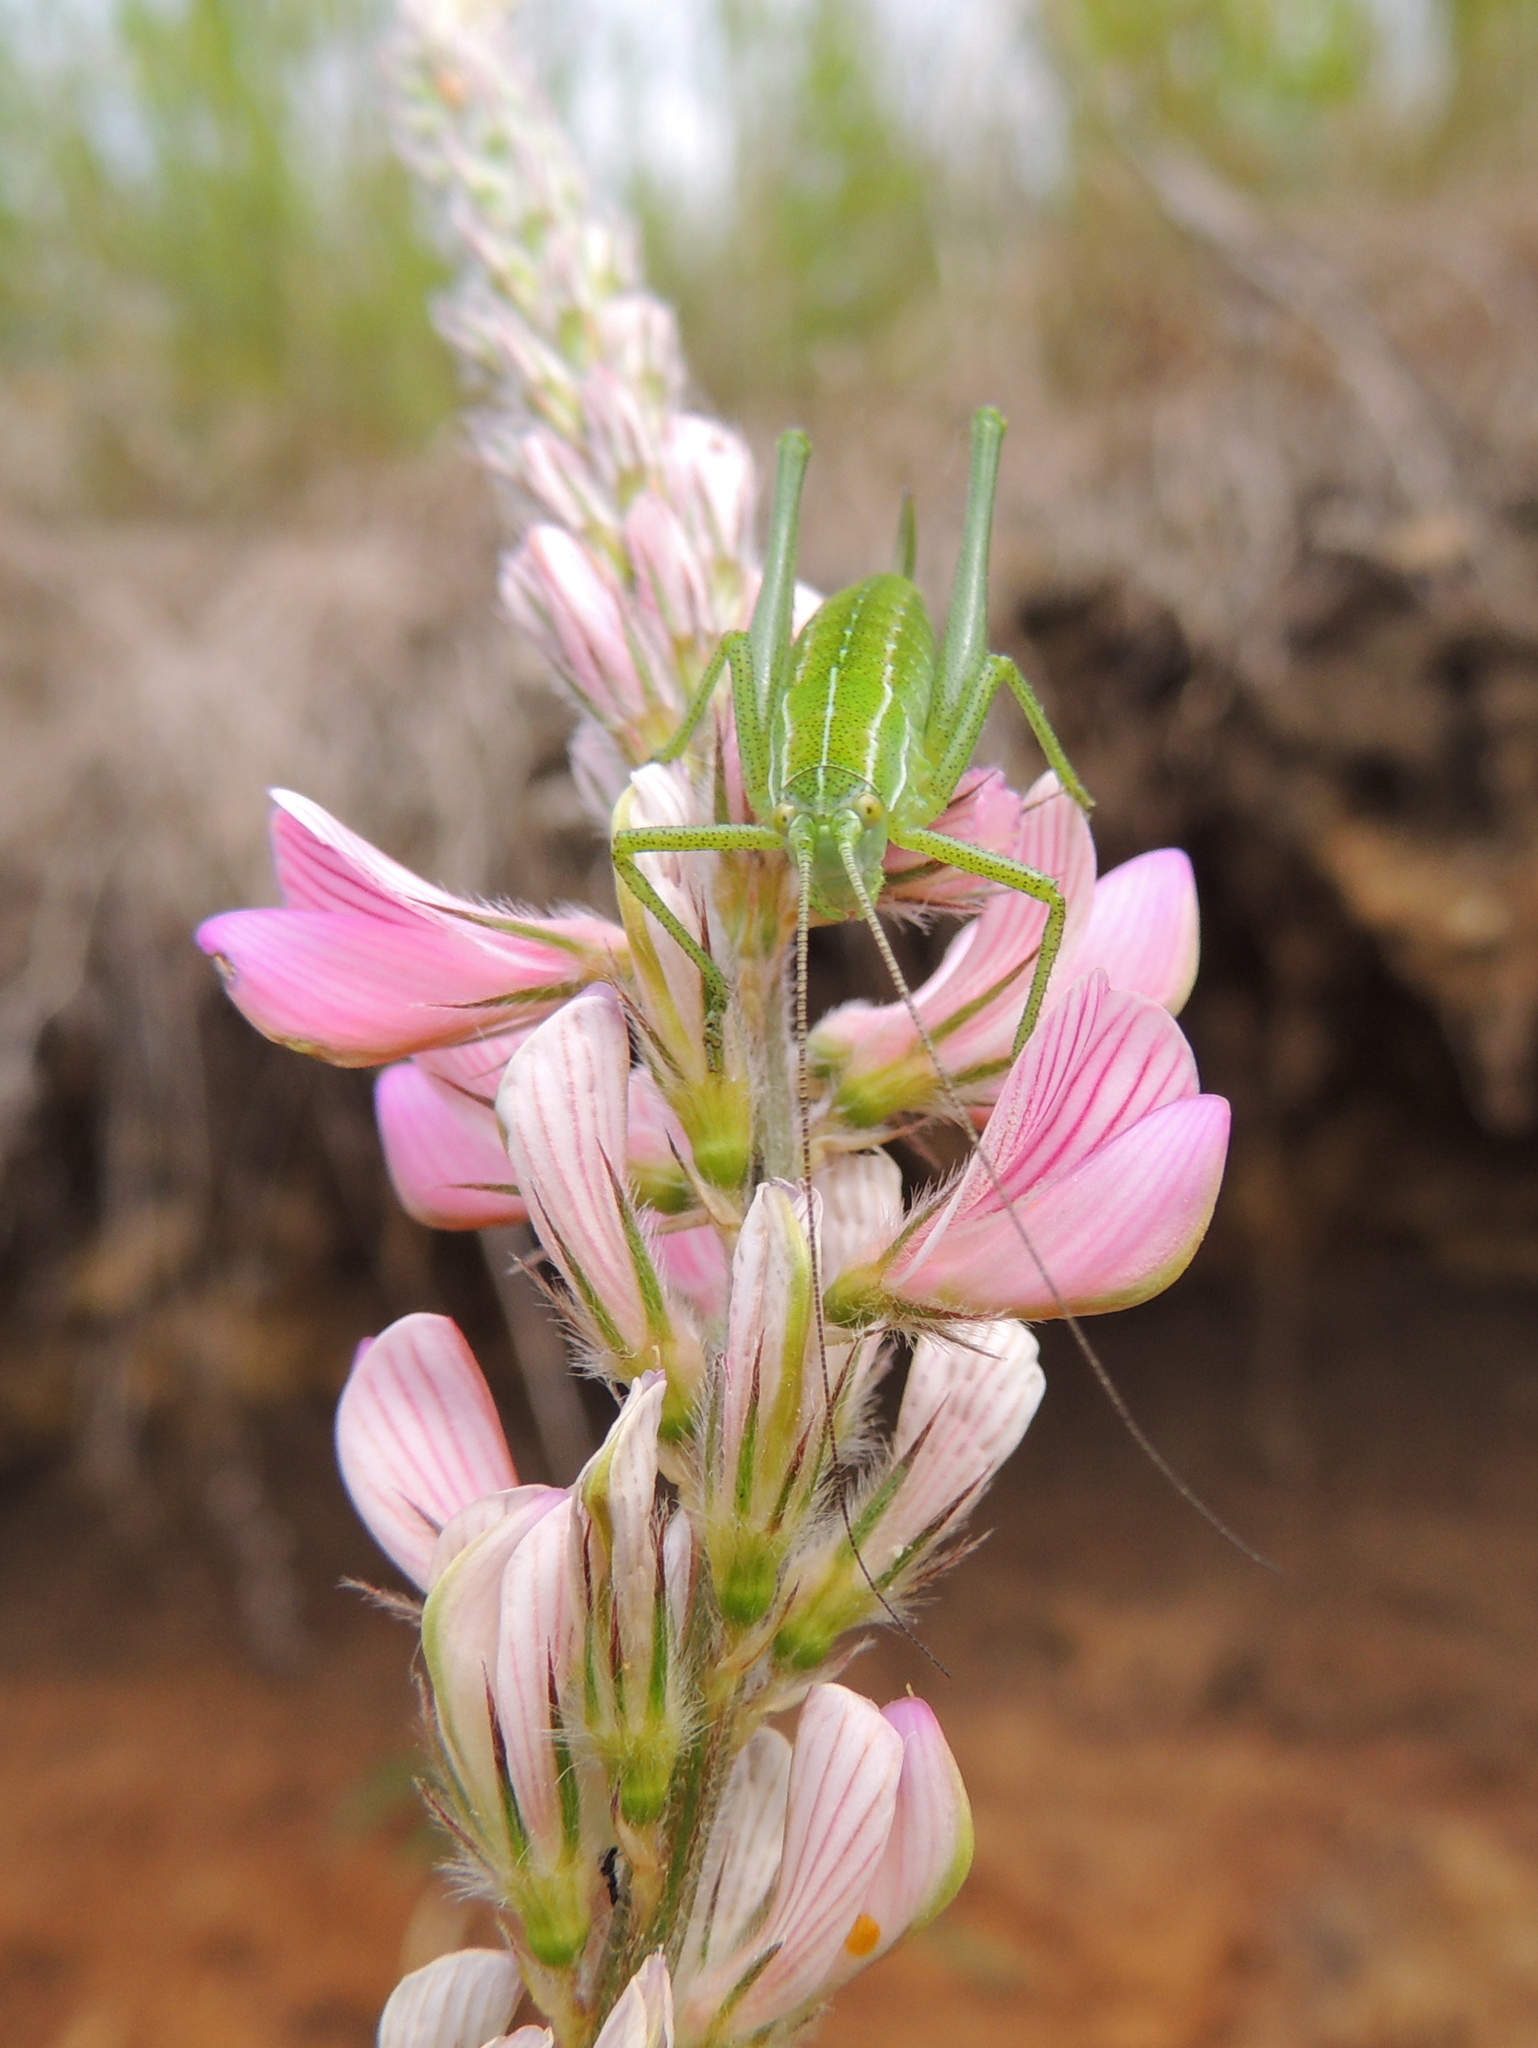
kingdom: Animalia
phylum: Arthropoda
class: Insecta
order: Orthoptera
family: Tettigoniidae
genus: Poecilimon
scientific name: Poecilimon intermedius
